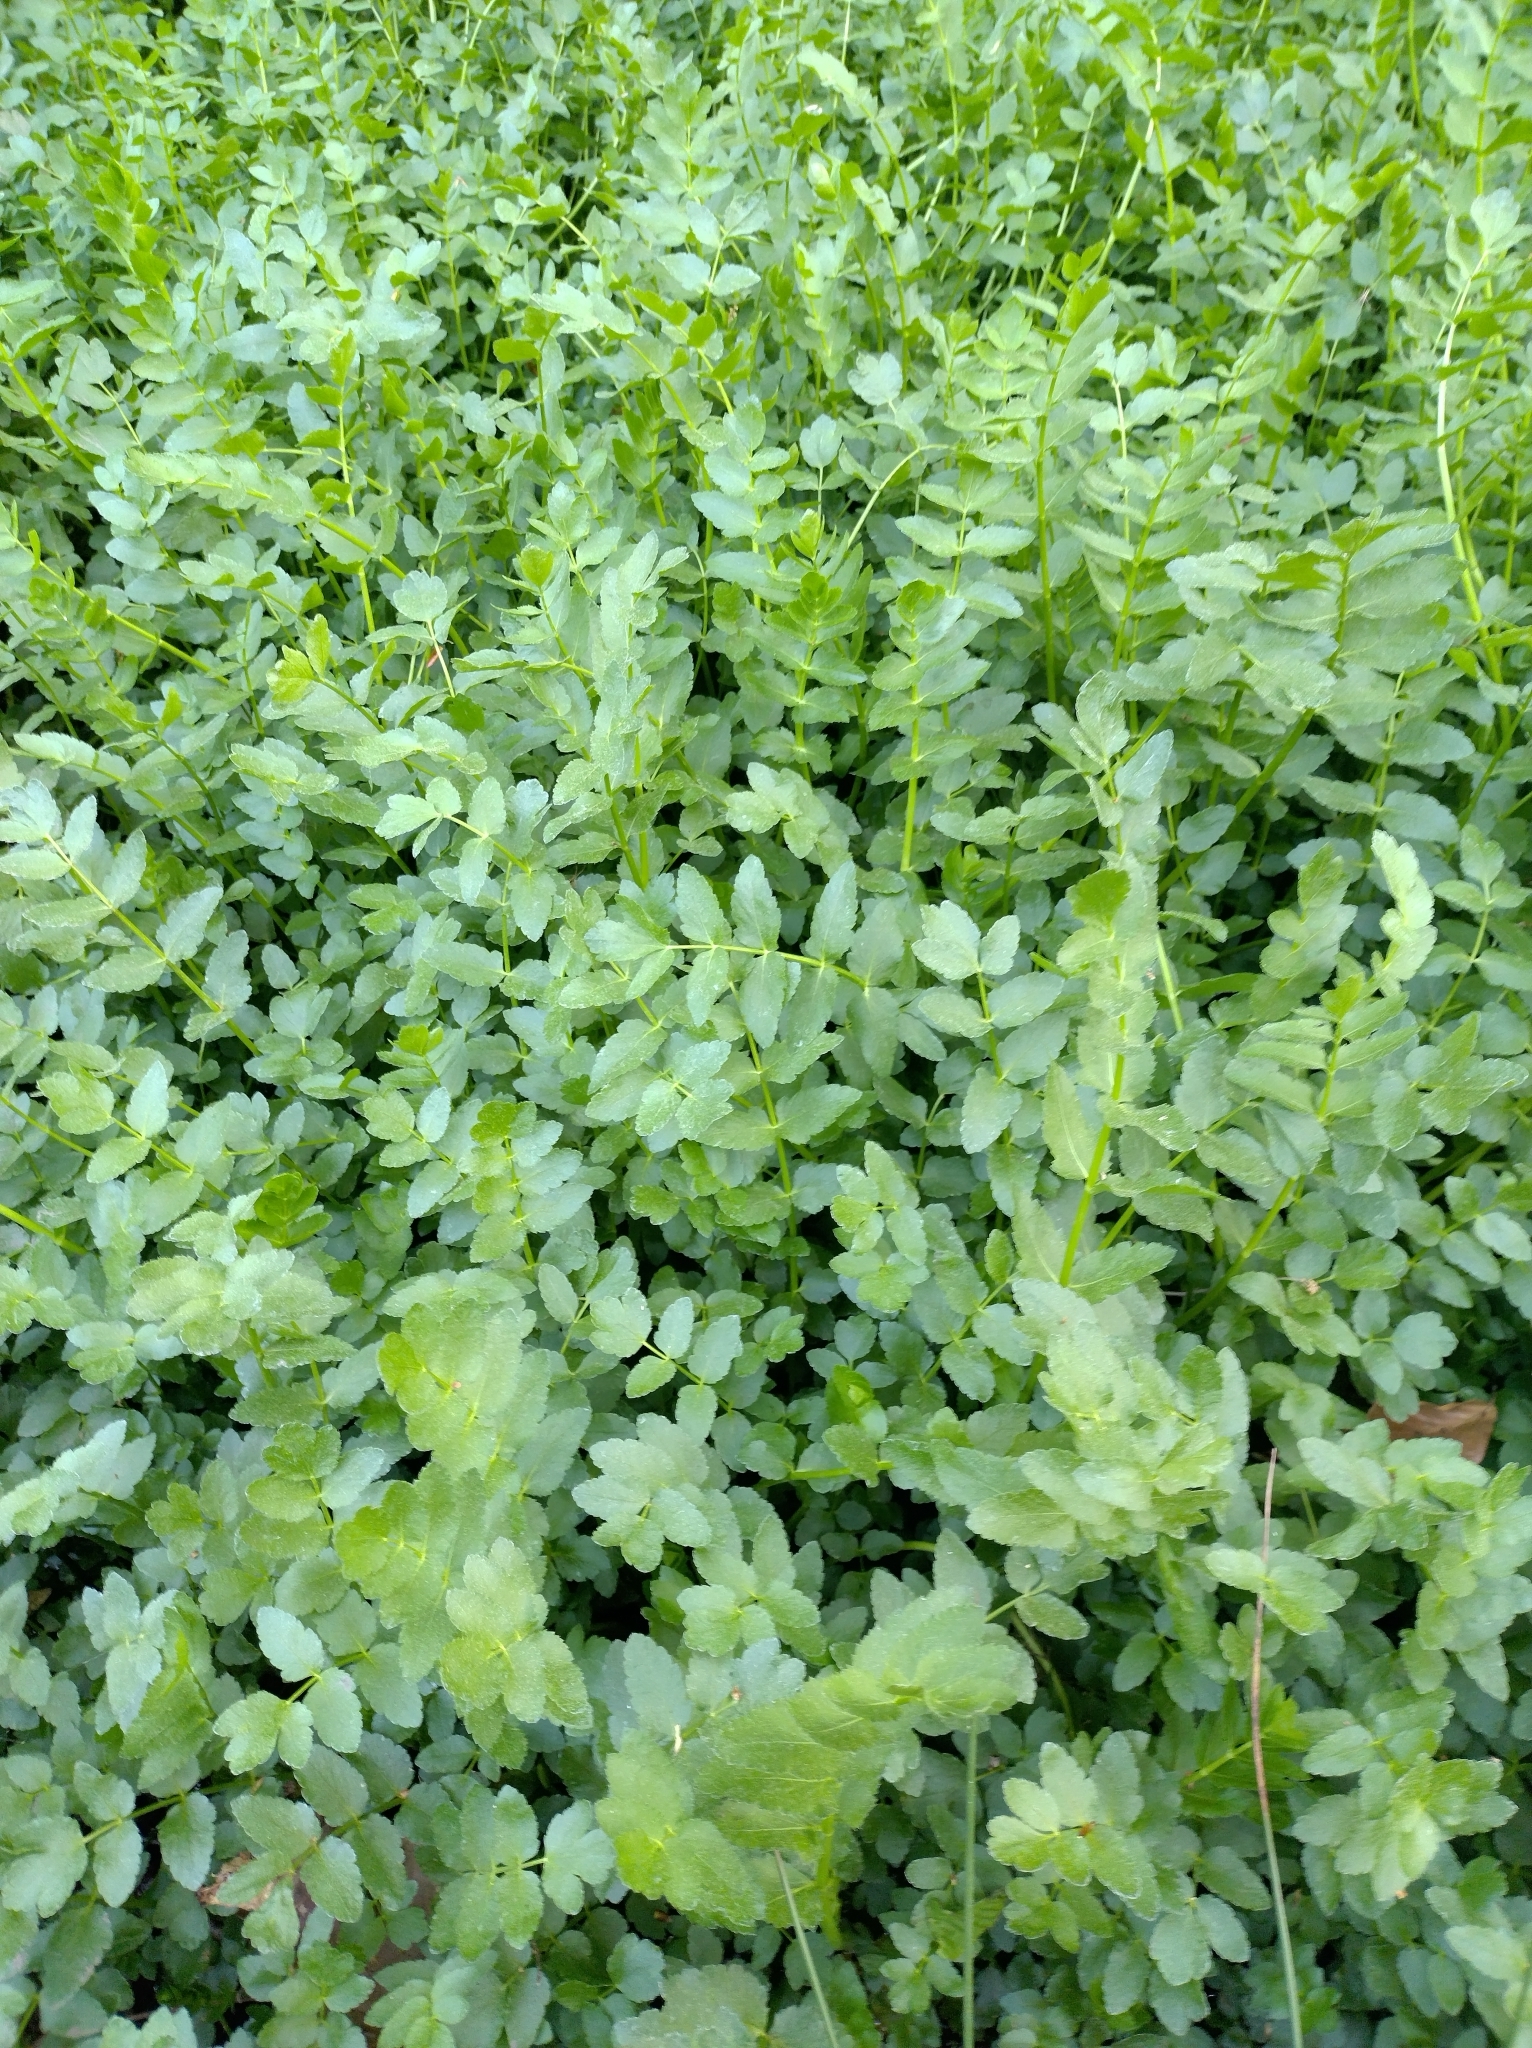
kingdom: Plantae
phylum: Tracheophyta
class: Magnoliopsida
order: Apiales
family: Apiaceae
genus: Berula
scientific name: Berula erecta
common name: Lesser water-parsnip
